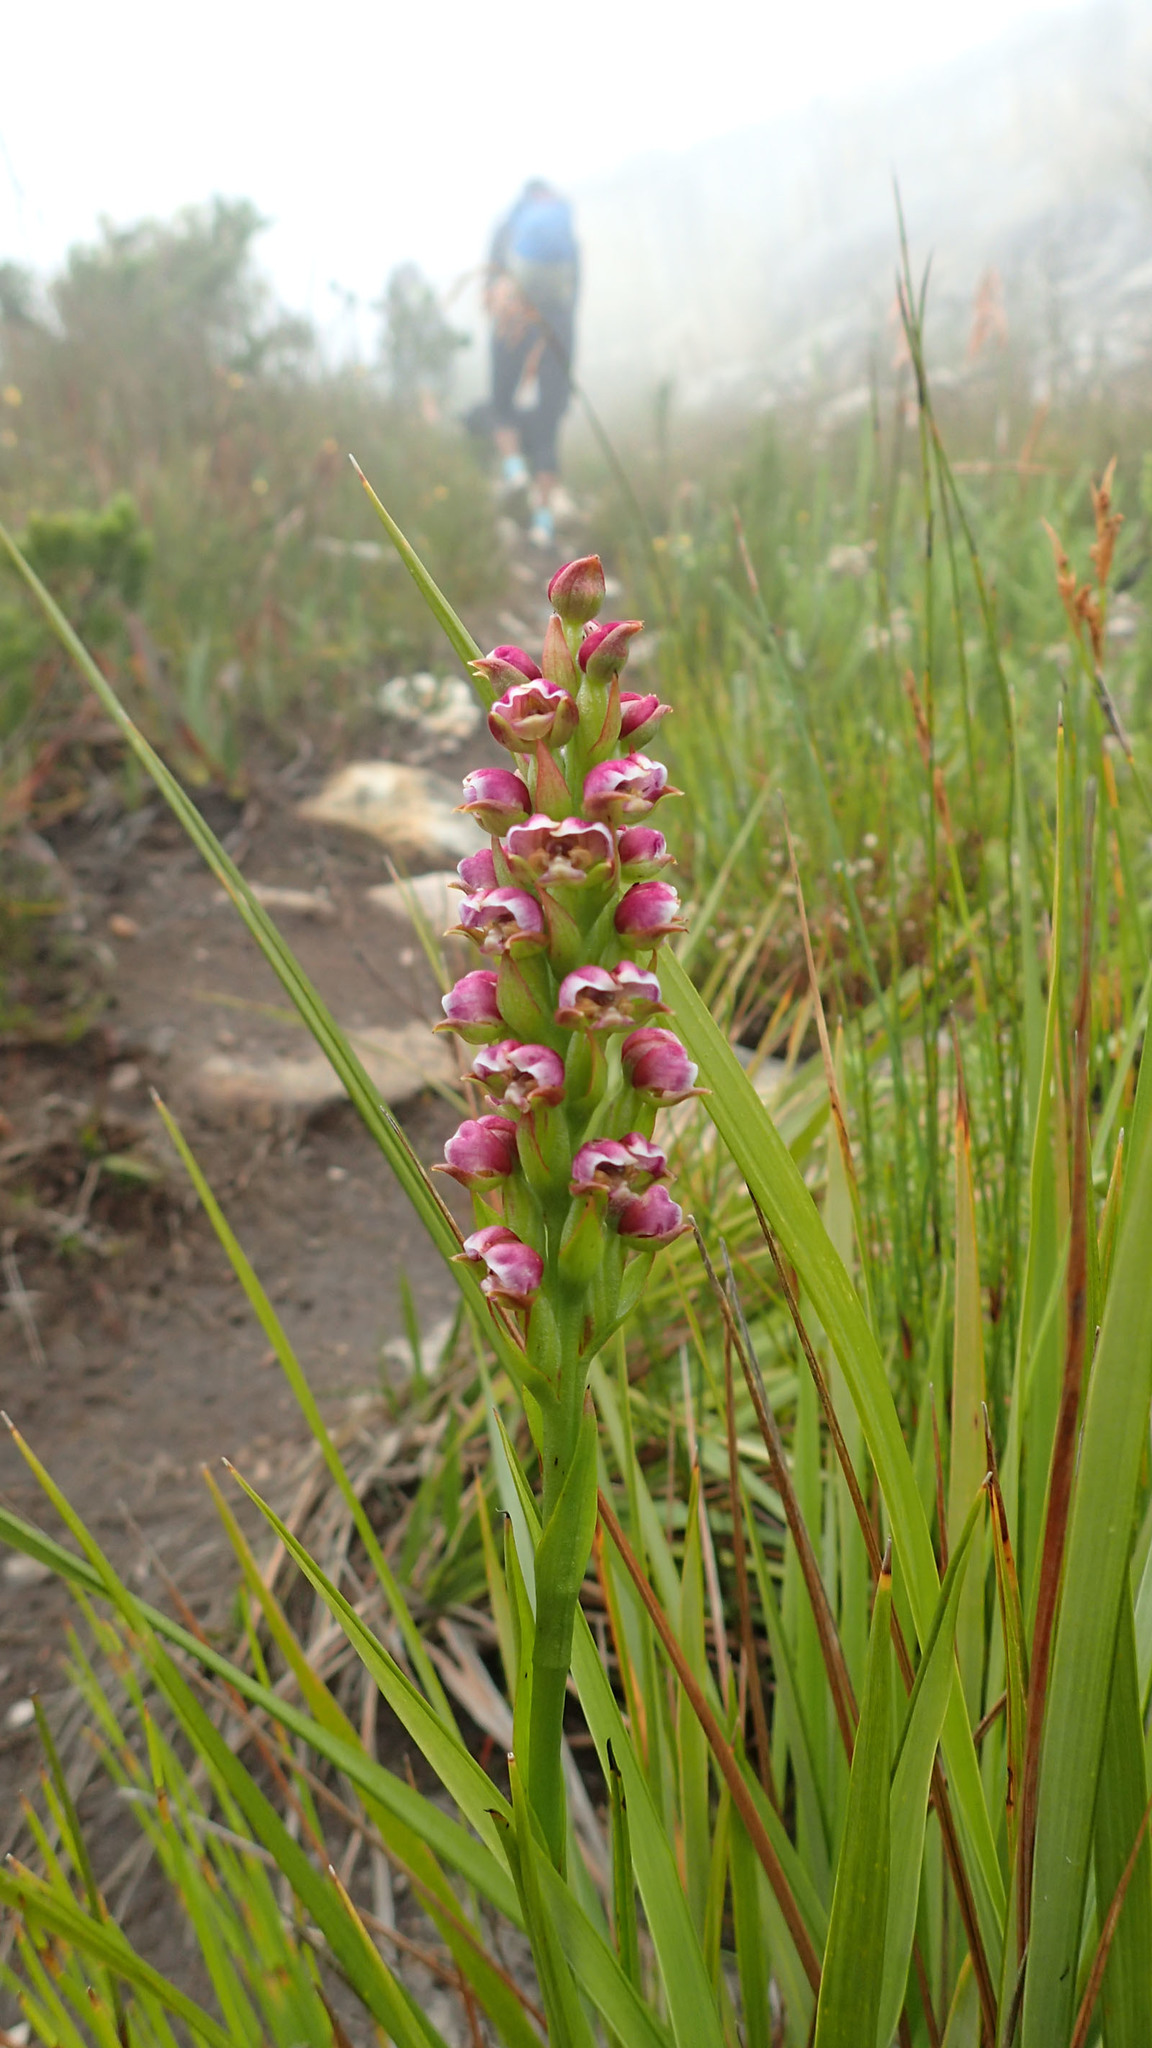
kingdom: Plantae
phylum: Tracheophyta
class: Liliopsida
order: Asparagales
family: Orchidaceae
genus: Evotella
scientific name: Evotella carnosa
